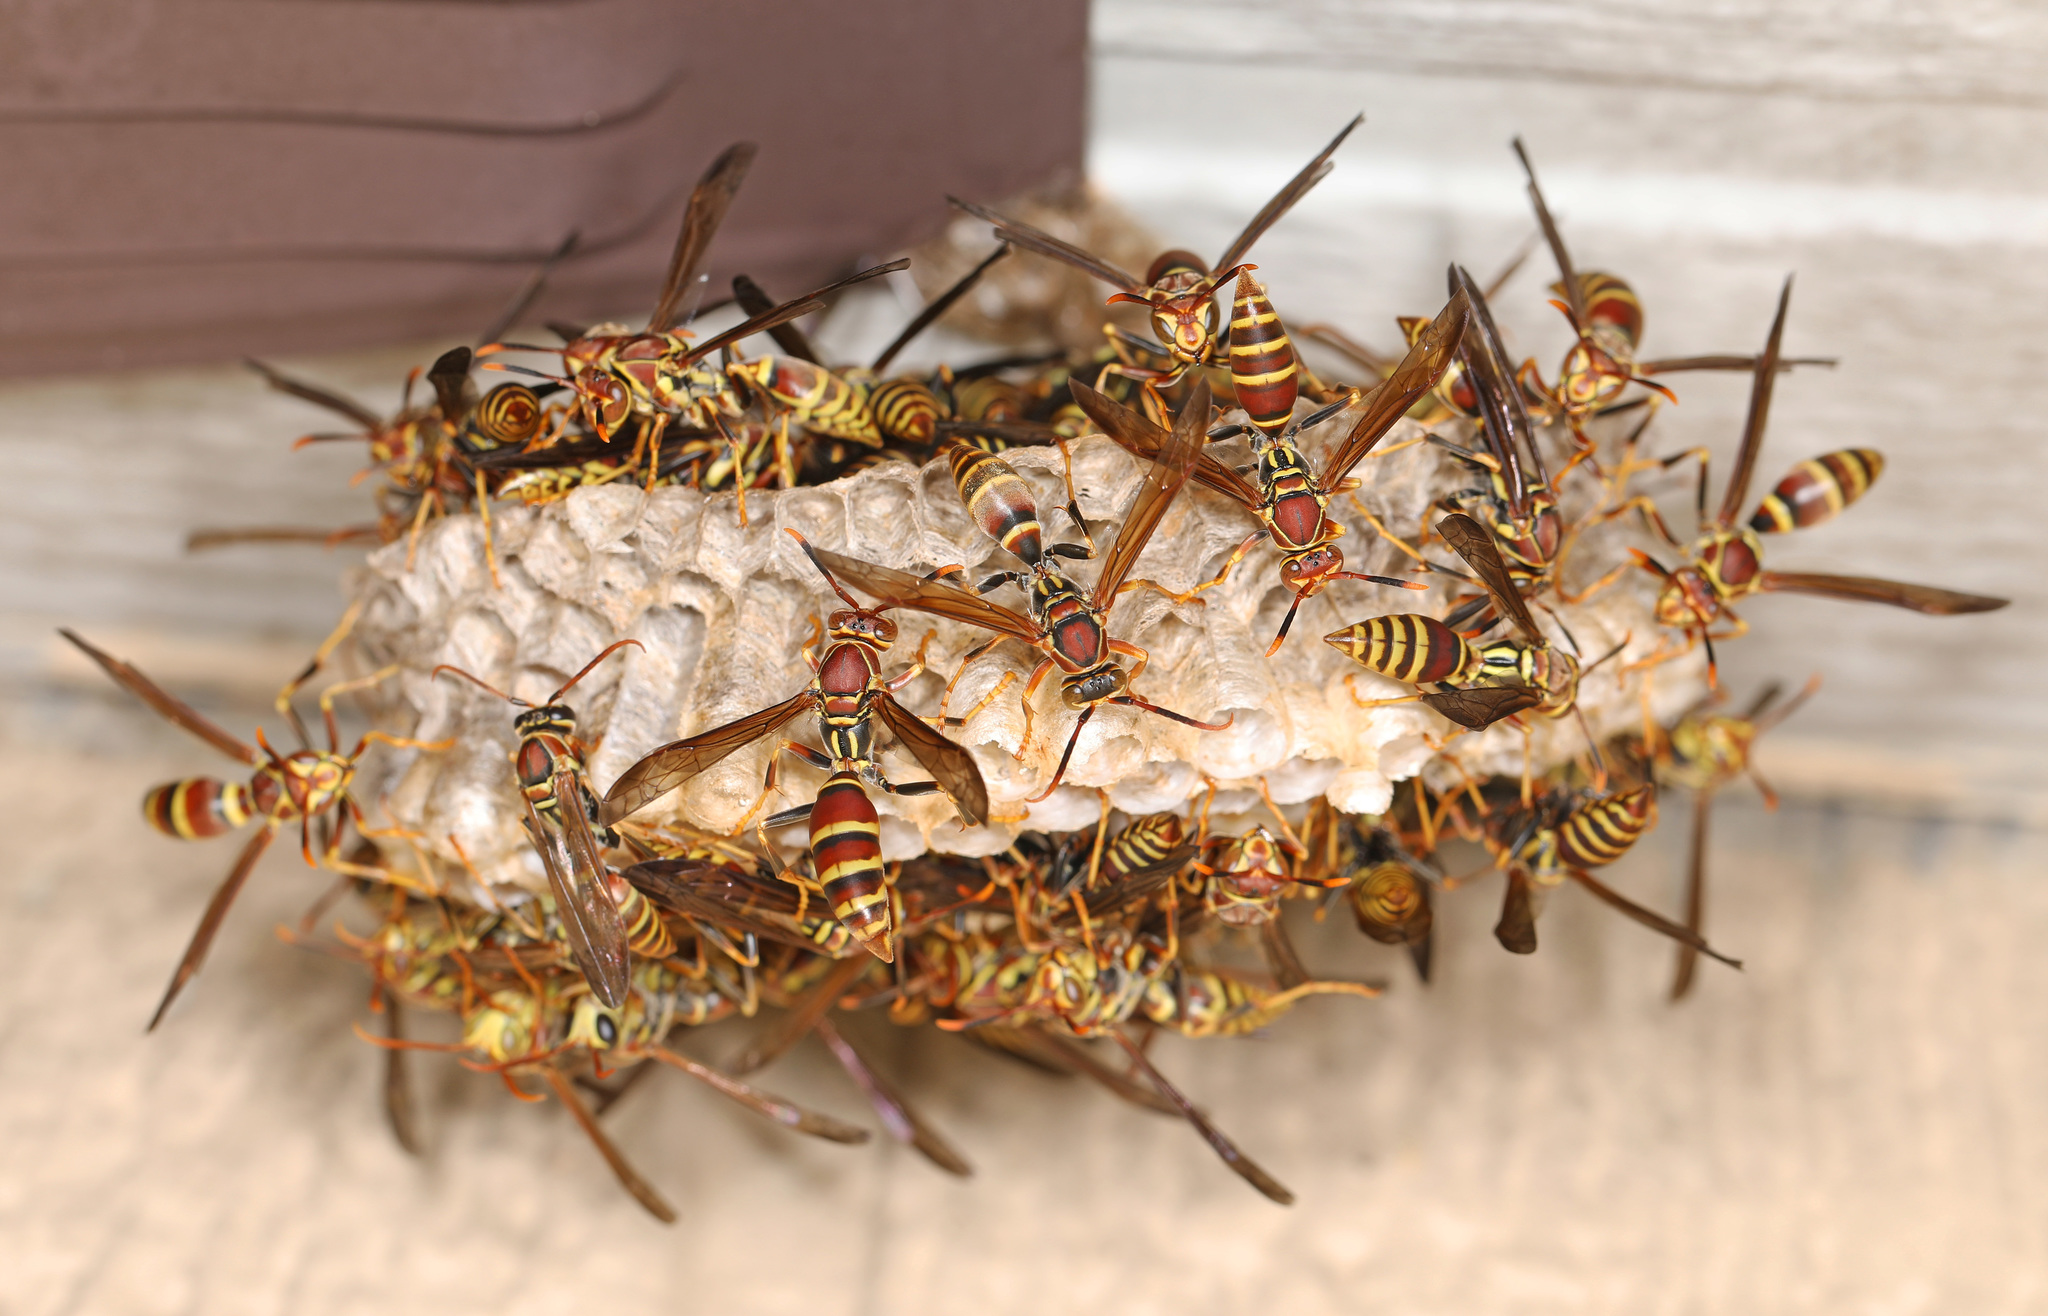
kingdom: Animalia
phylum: Arthropoda
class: Insecta
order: Hymenoptera
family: Eumenidae
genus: Polistes
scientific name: Polistes exclamans
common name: Paper wasp
